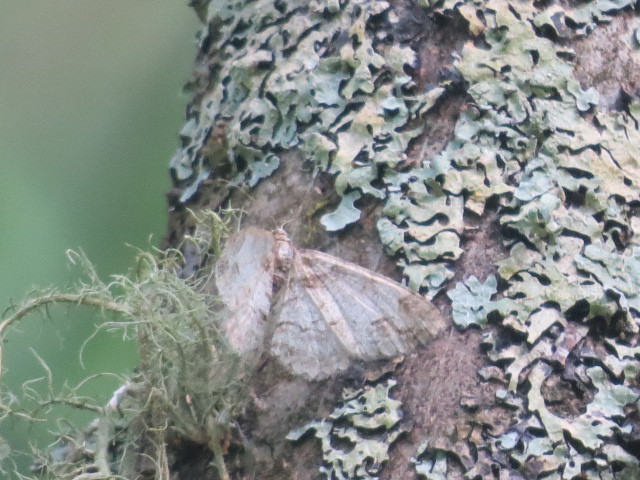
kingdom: Animalia
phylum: Arthropoda
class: Insecta
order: Lepidoptera
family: Geometridae
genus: Paradarisa
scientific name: Paradarisa consonaria
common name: Square spot
